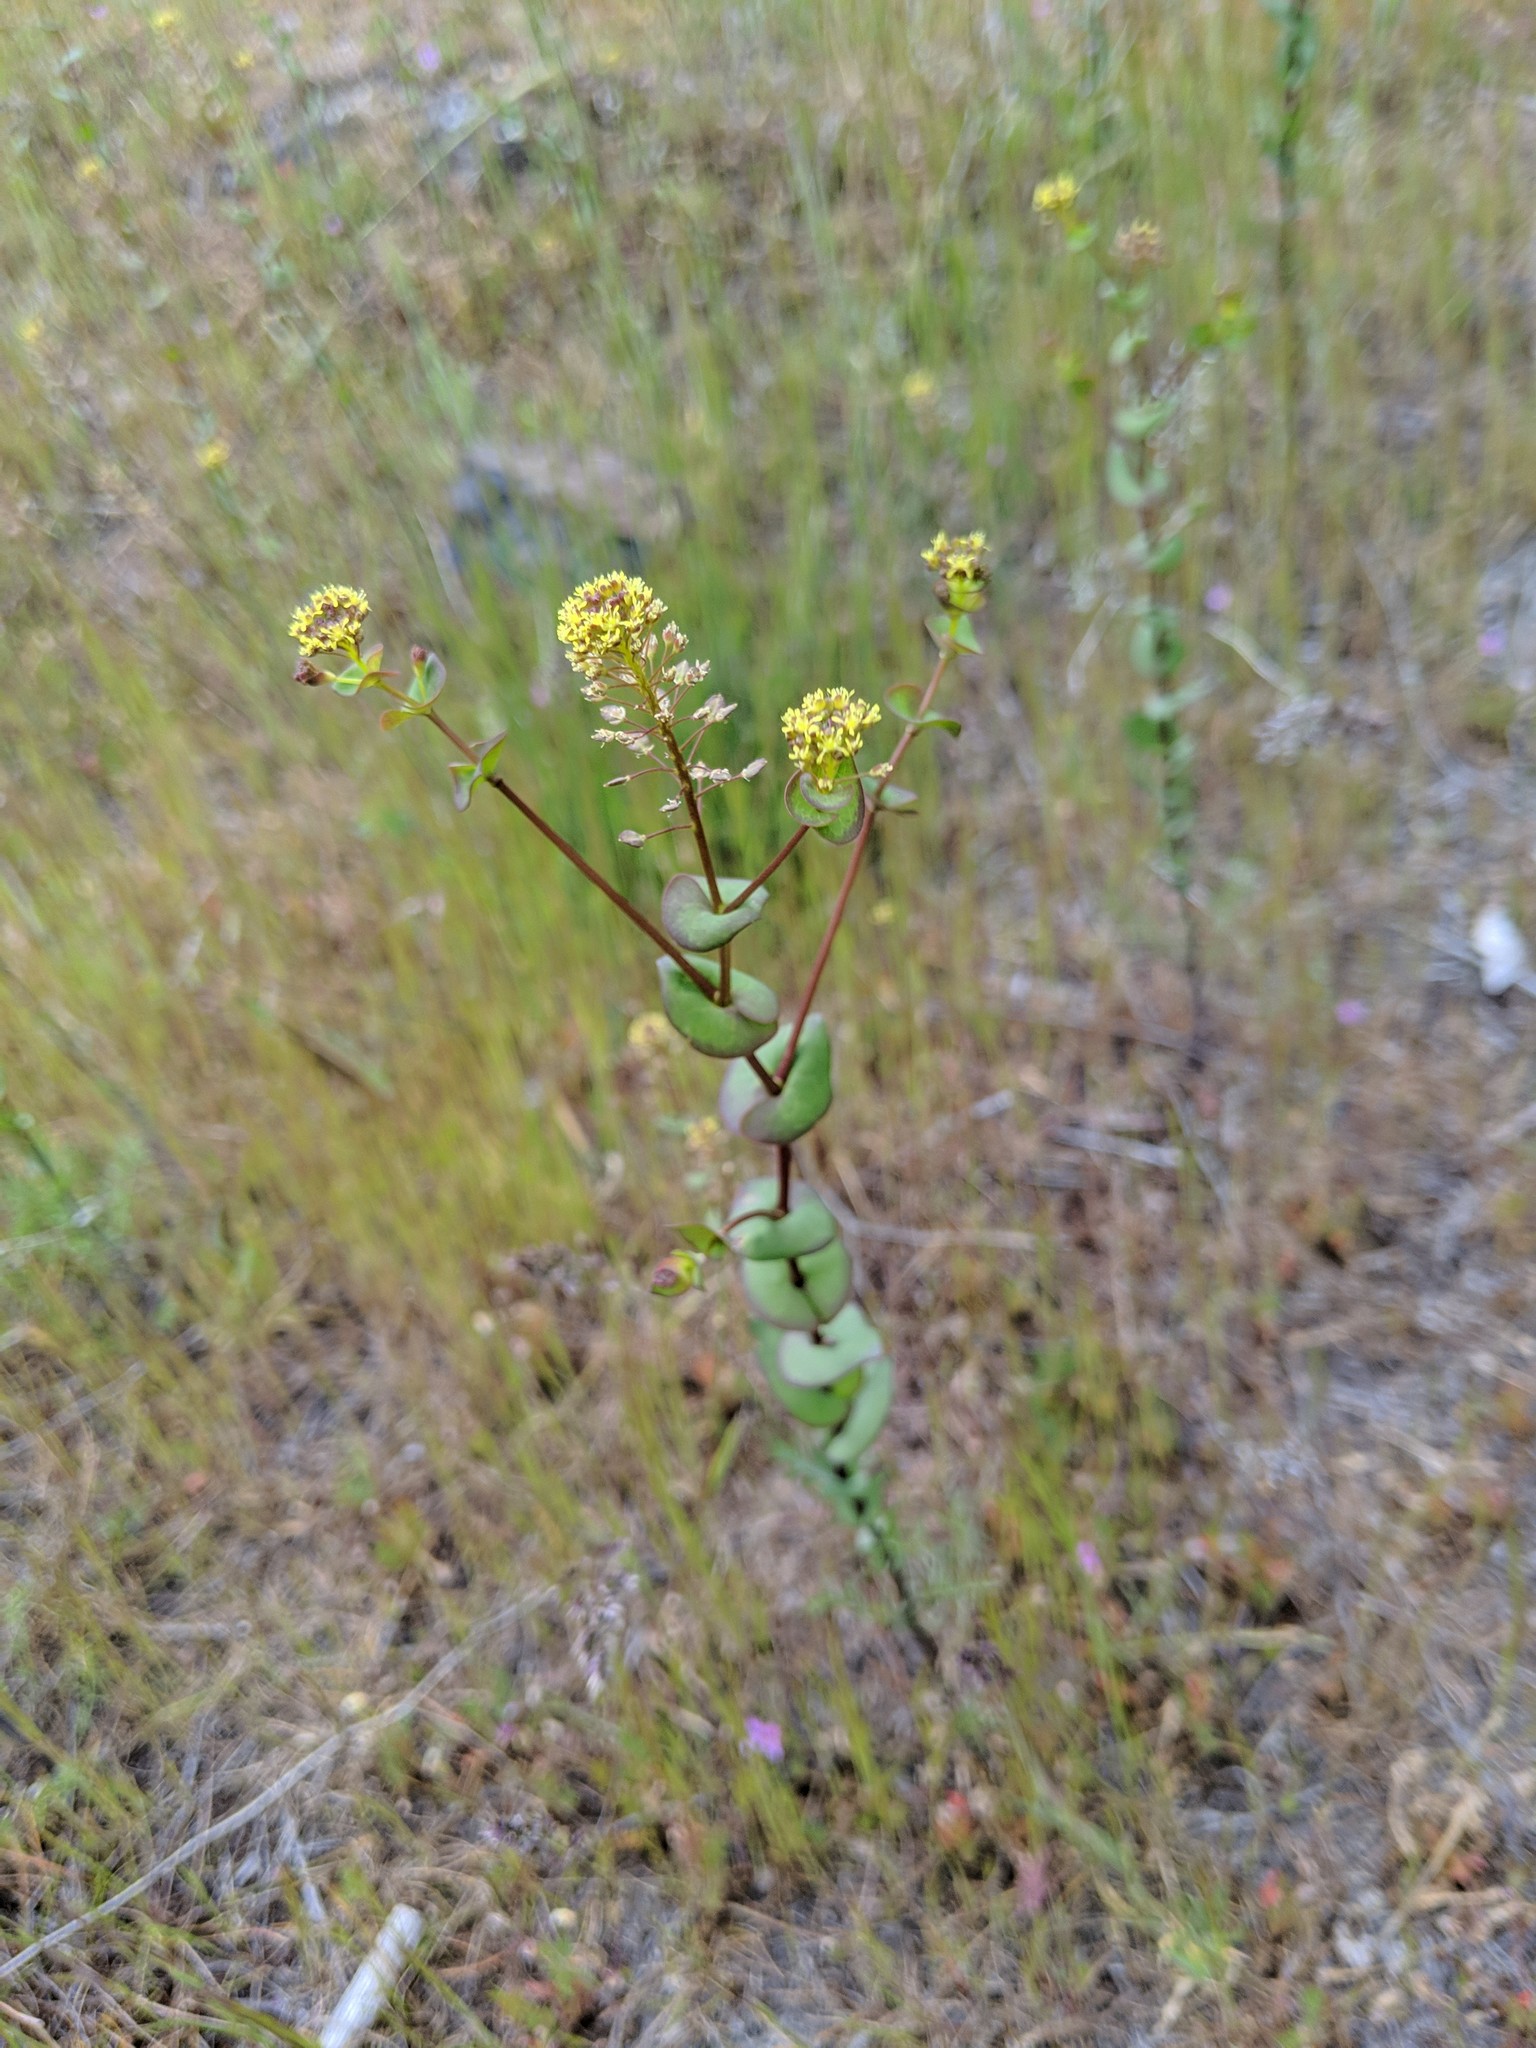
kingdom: Plantae
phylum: Tracheophyta
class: Magnoliopsida
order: Brassicales
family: Brassicaceae
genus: Lepidium
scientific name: Lepidium perfoliatum
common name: Perfoliate pepperwort
